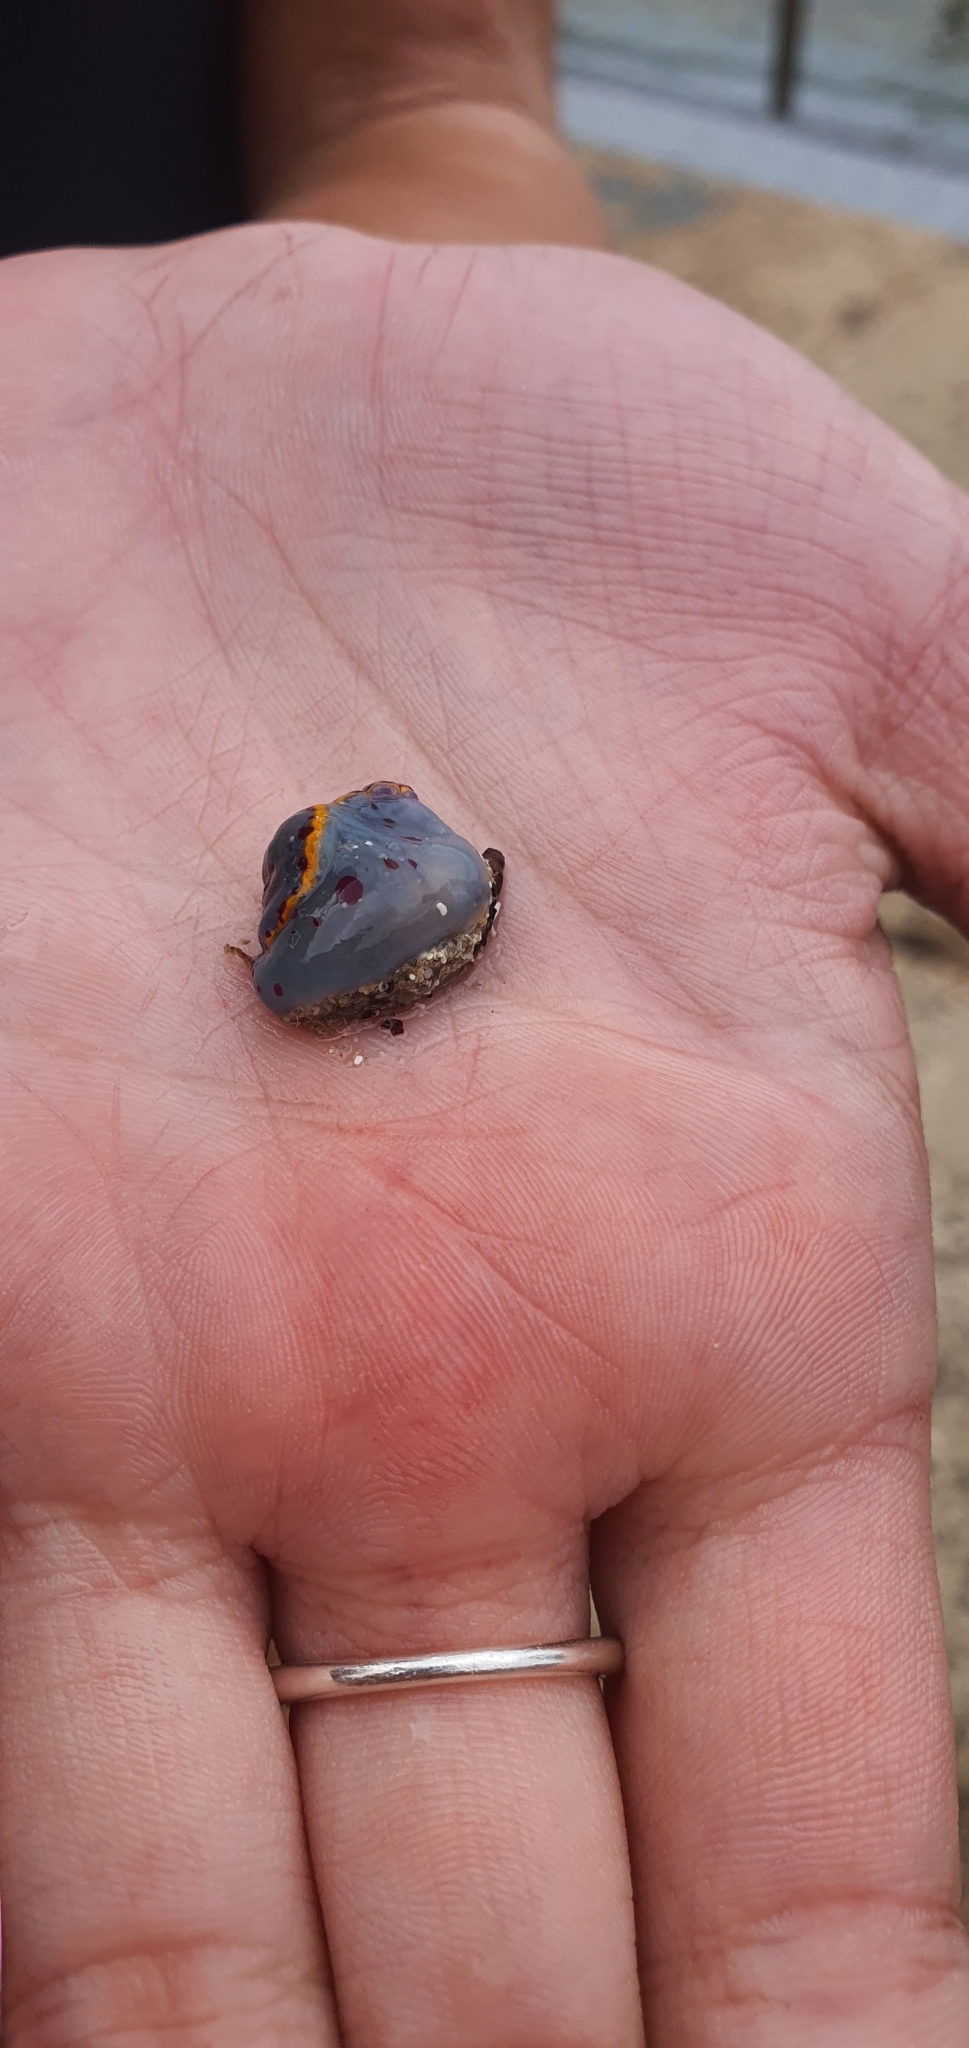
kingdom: Animalia
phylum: Mollusca
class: Gastropoda
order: Nudibranchia
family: Chromodorididae
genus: Hypselodoris
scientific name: Hypselodoris bennetti
